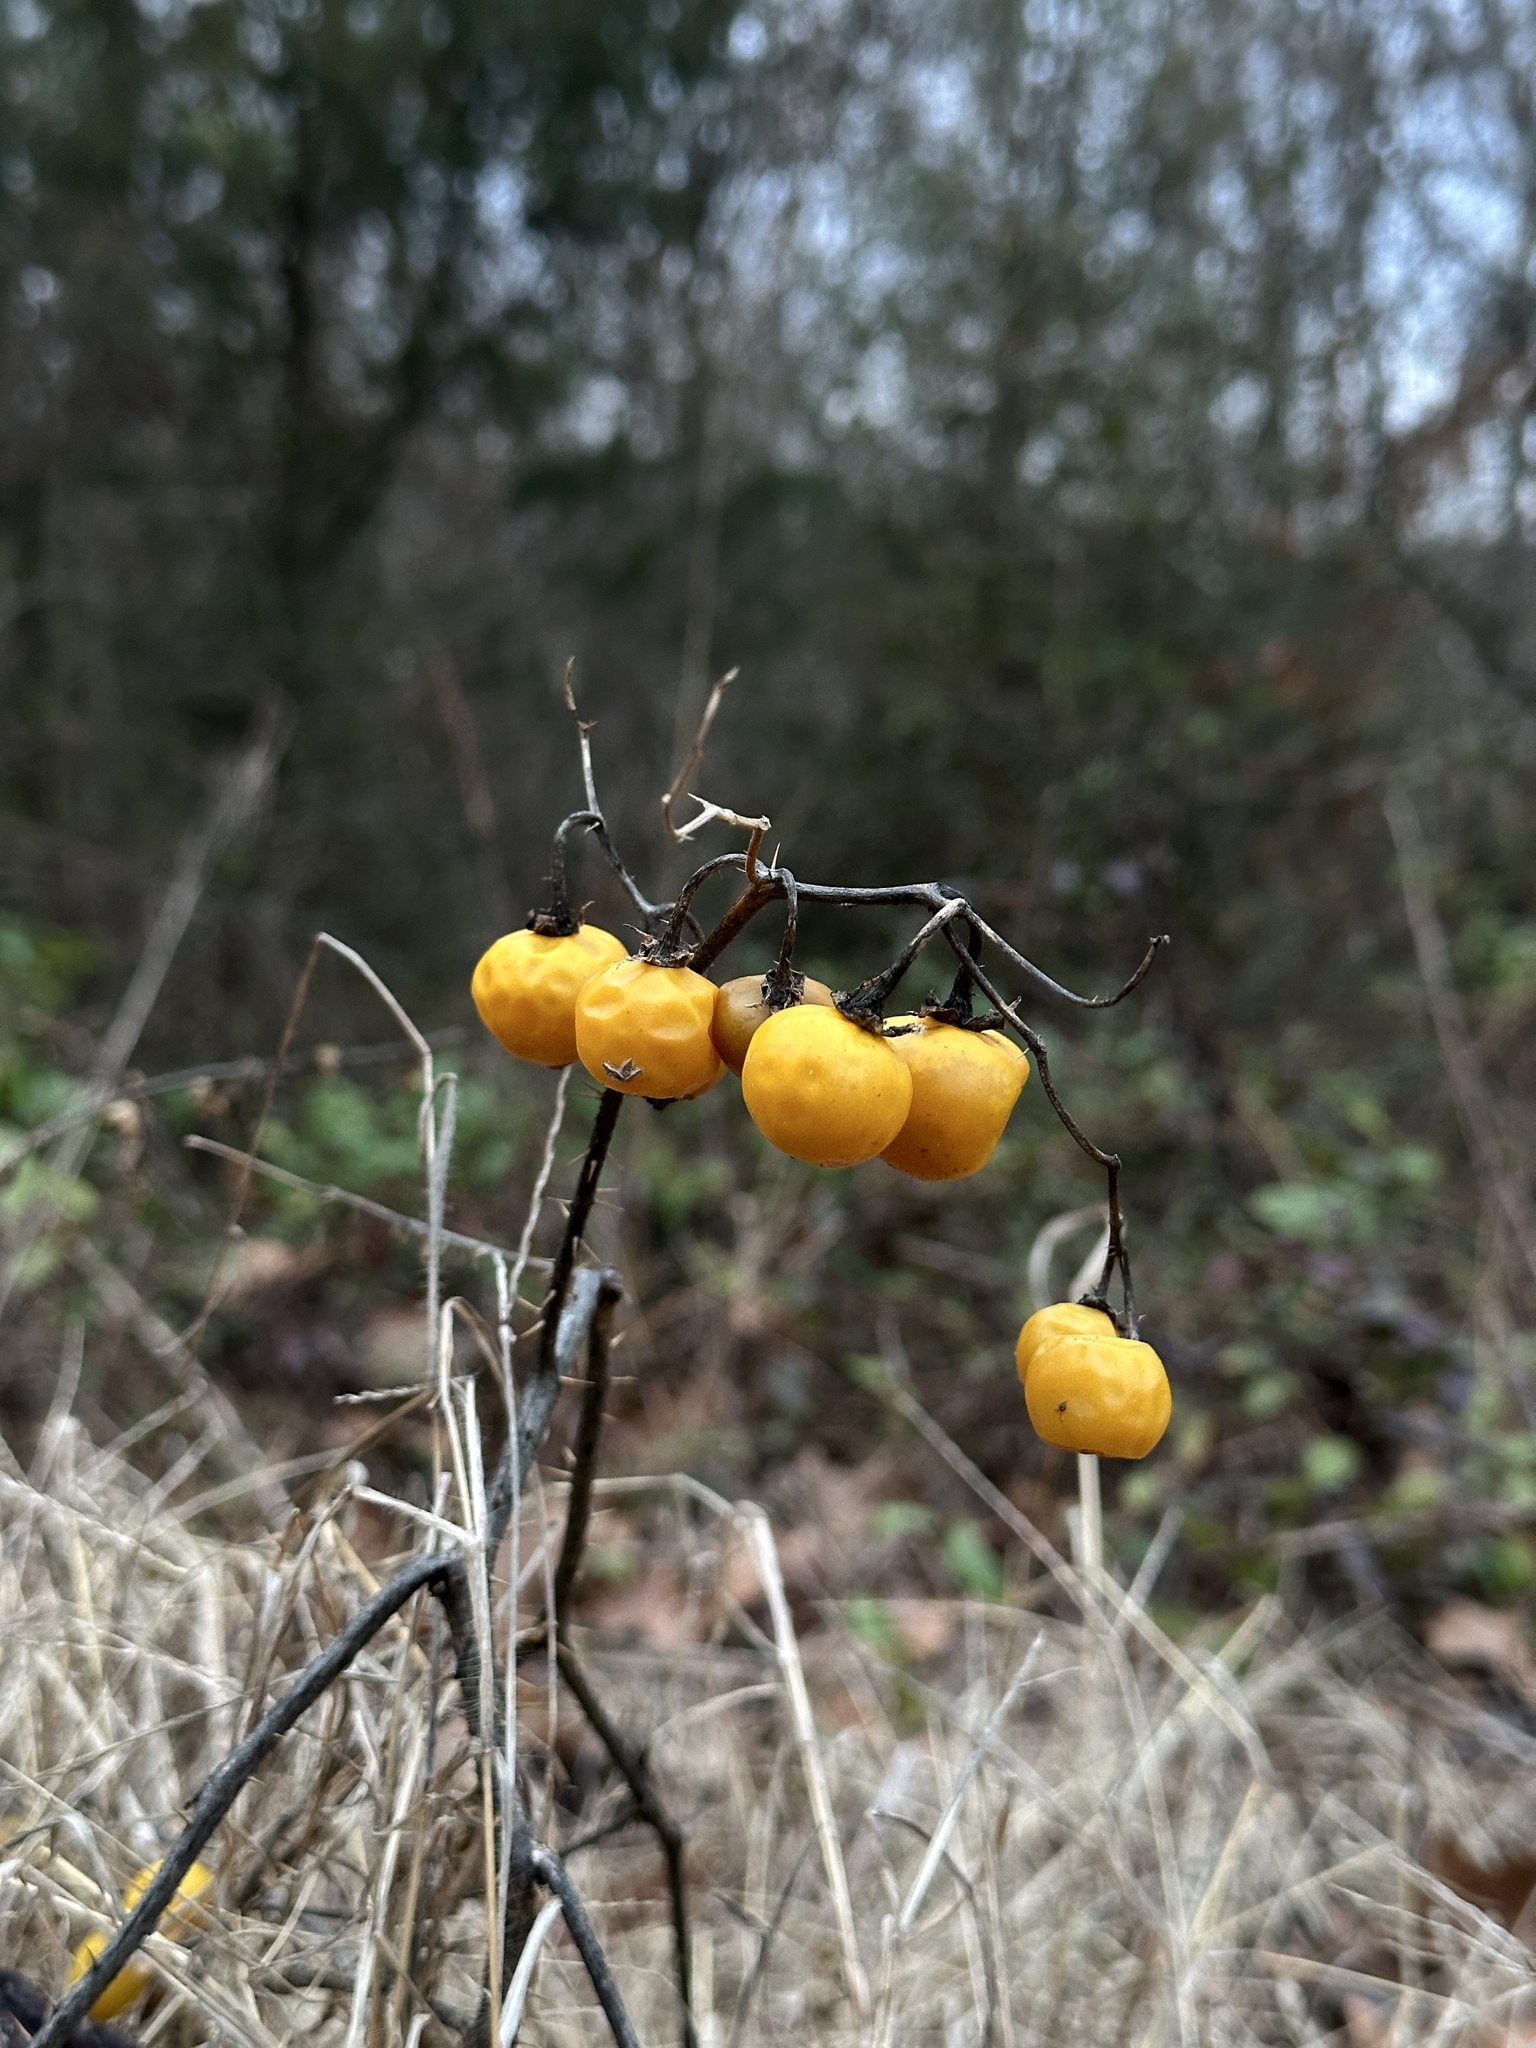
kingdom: Plantae
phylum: Tracheophyta
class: Magnoliopsida
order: Solanales
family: Solanaceae
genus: Solanum
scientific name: Solanum carolinense
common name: Horse-nettle
